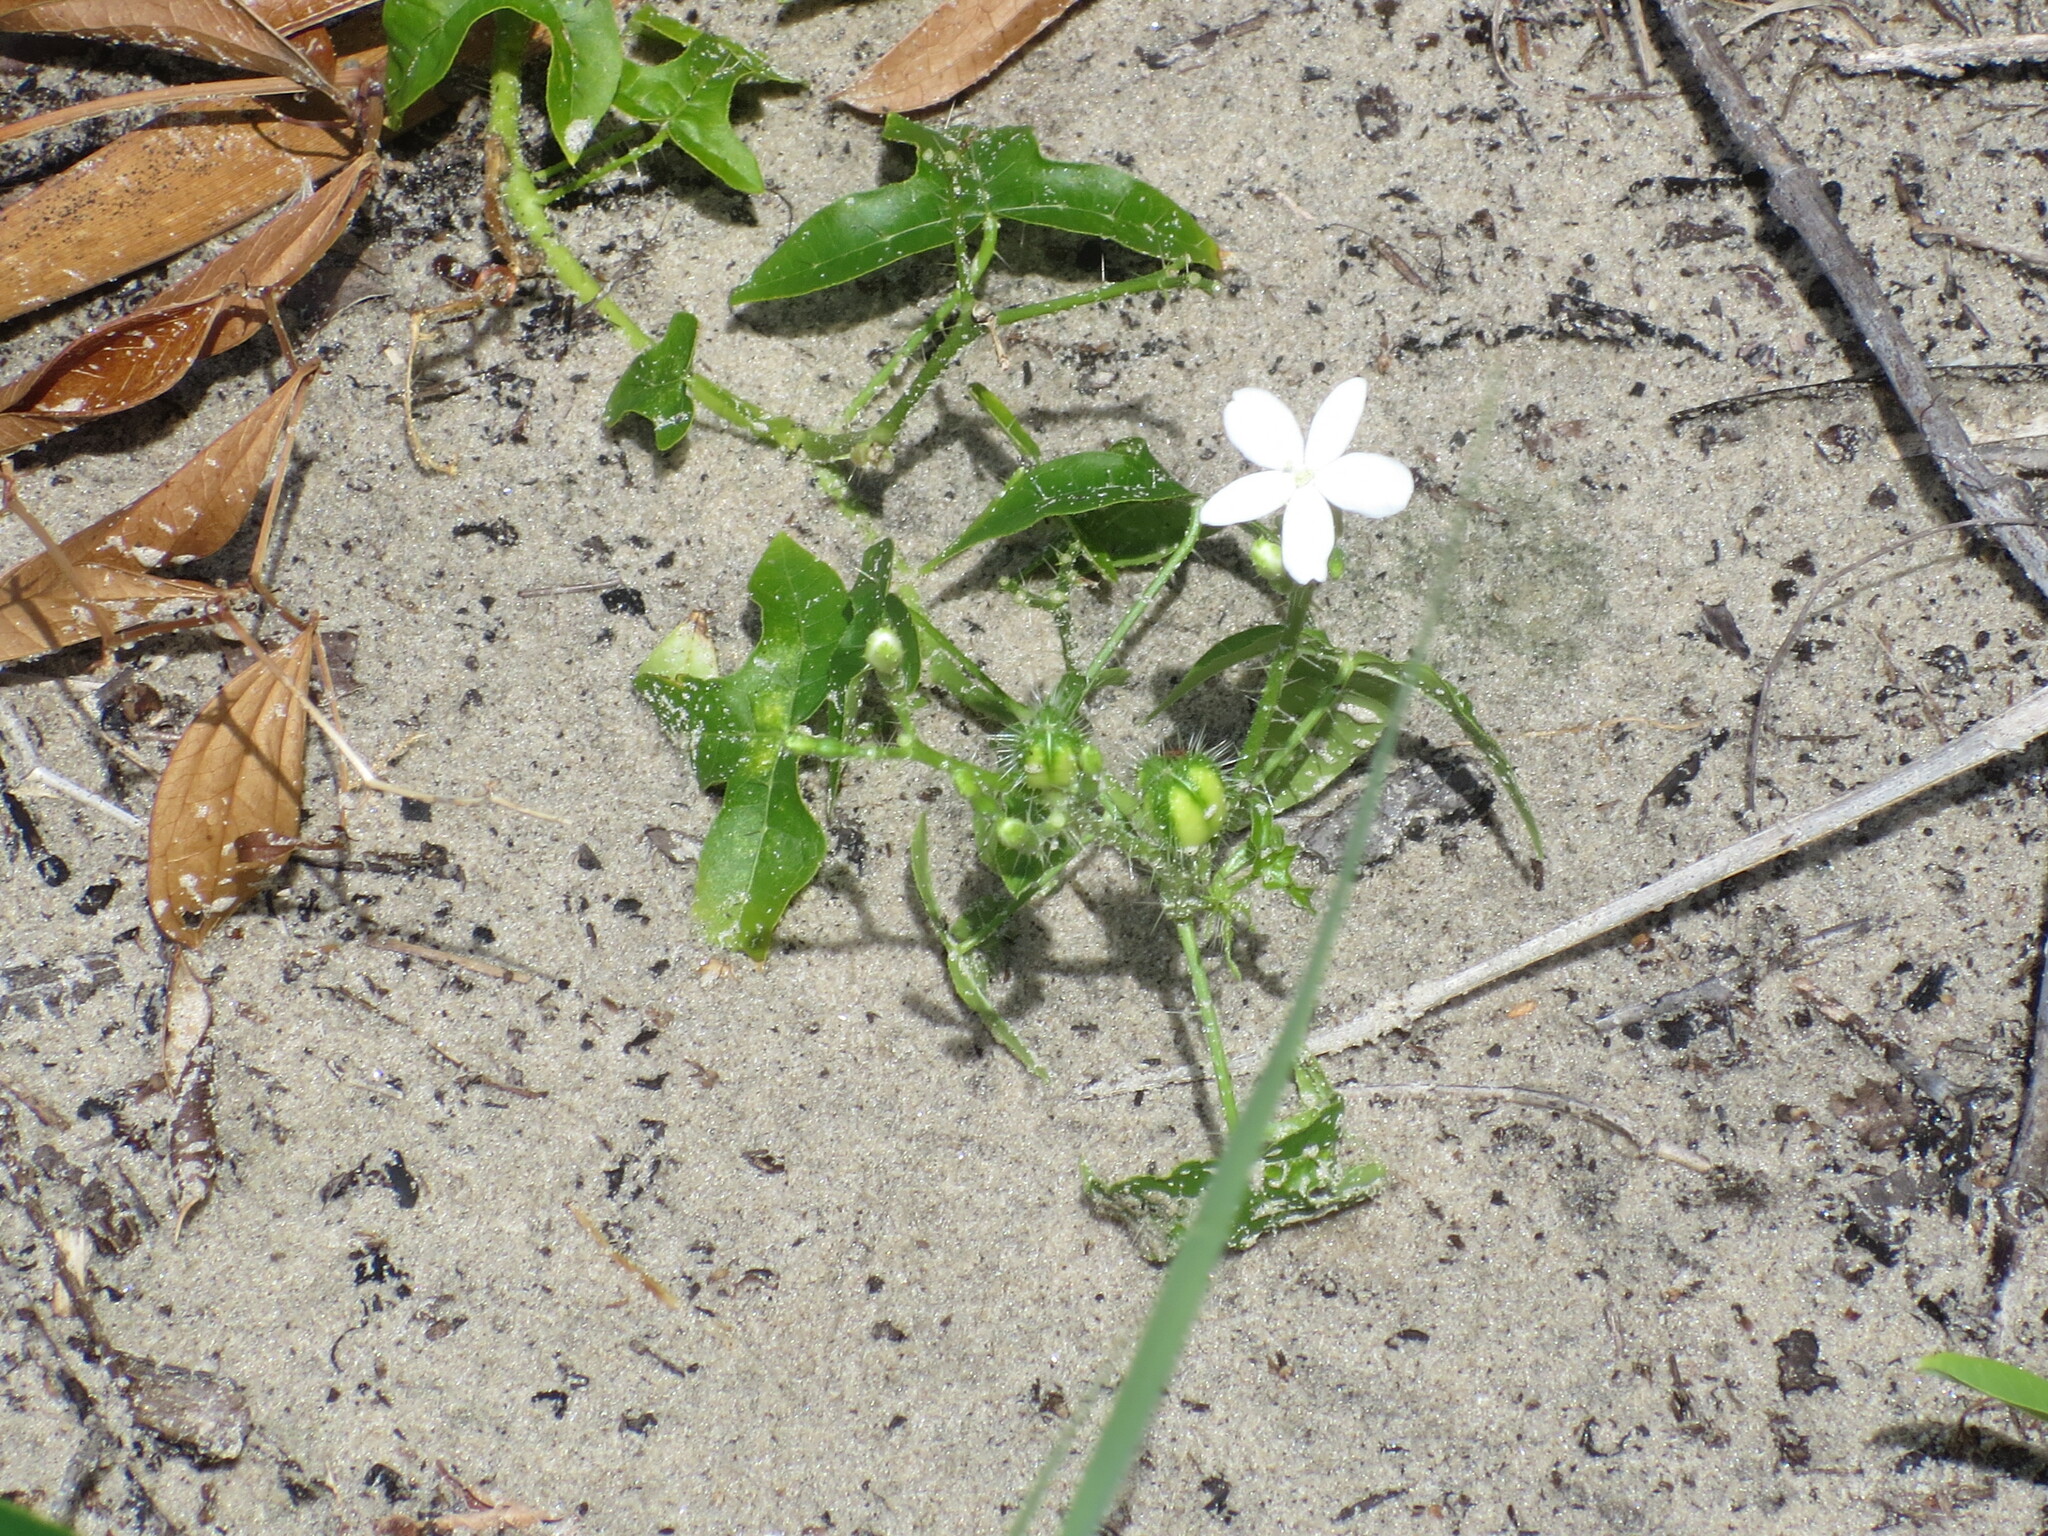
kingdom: Plantae
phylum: Tracheophyta
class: Magnoliopsida
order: Malpighiales
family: Euphorbiaceae
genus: Cnidoscolus
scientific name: Cnidoscolus stimulosus
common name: Bull-nettle
